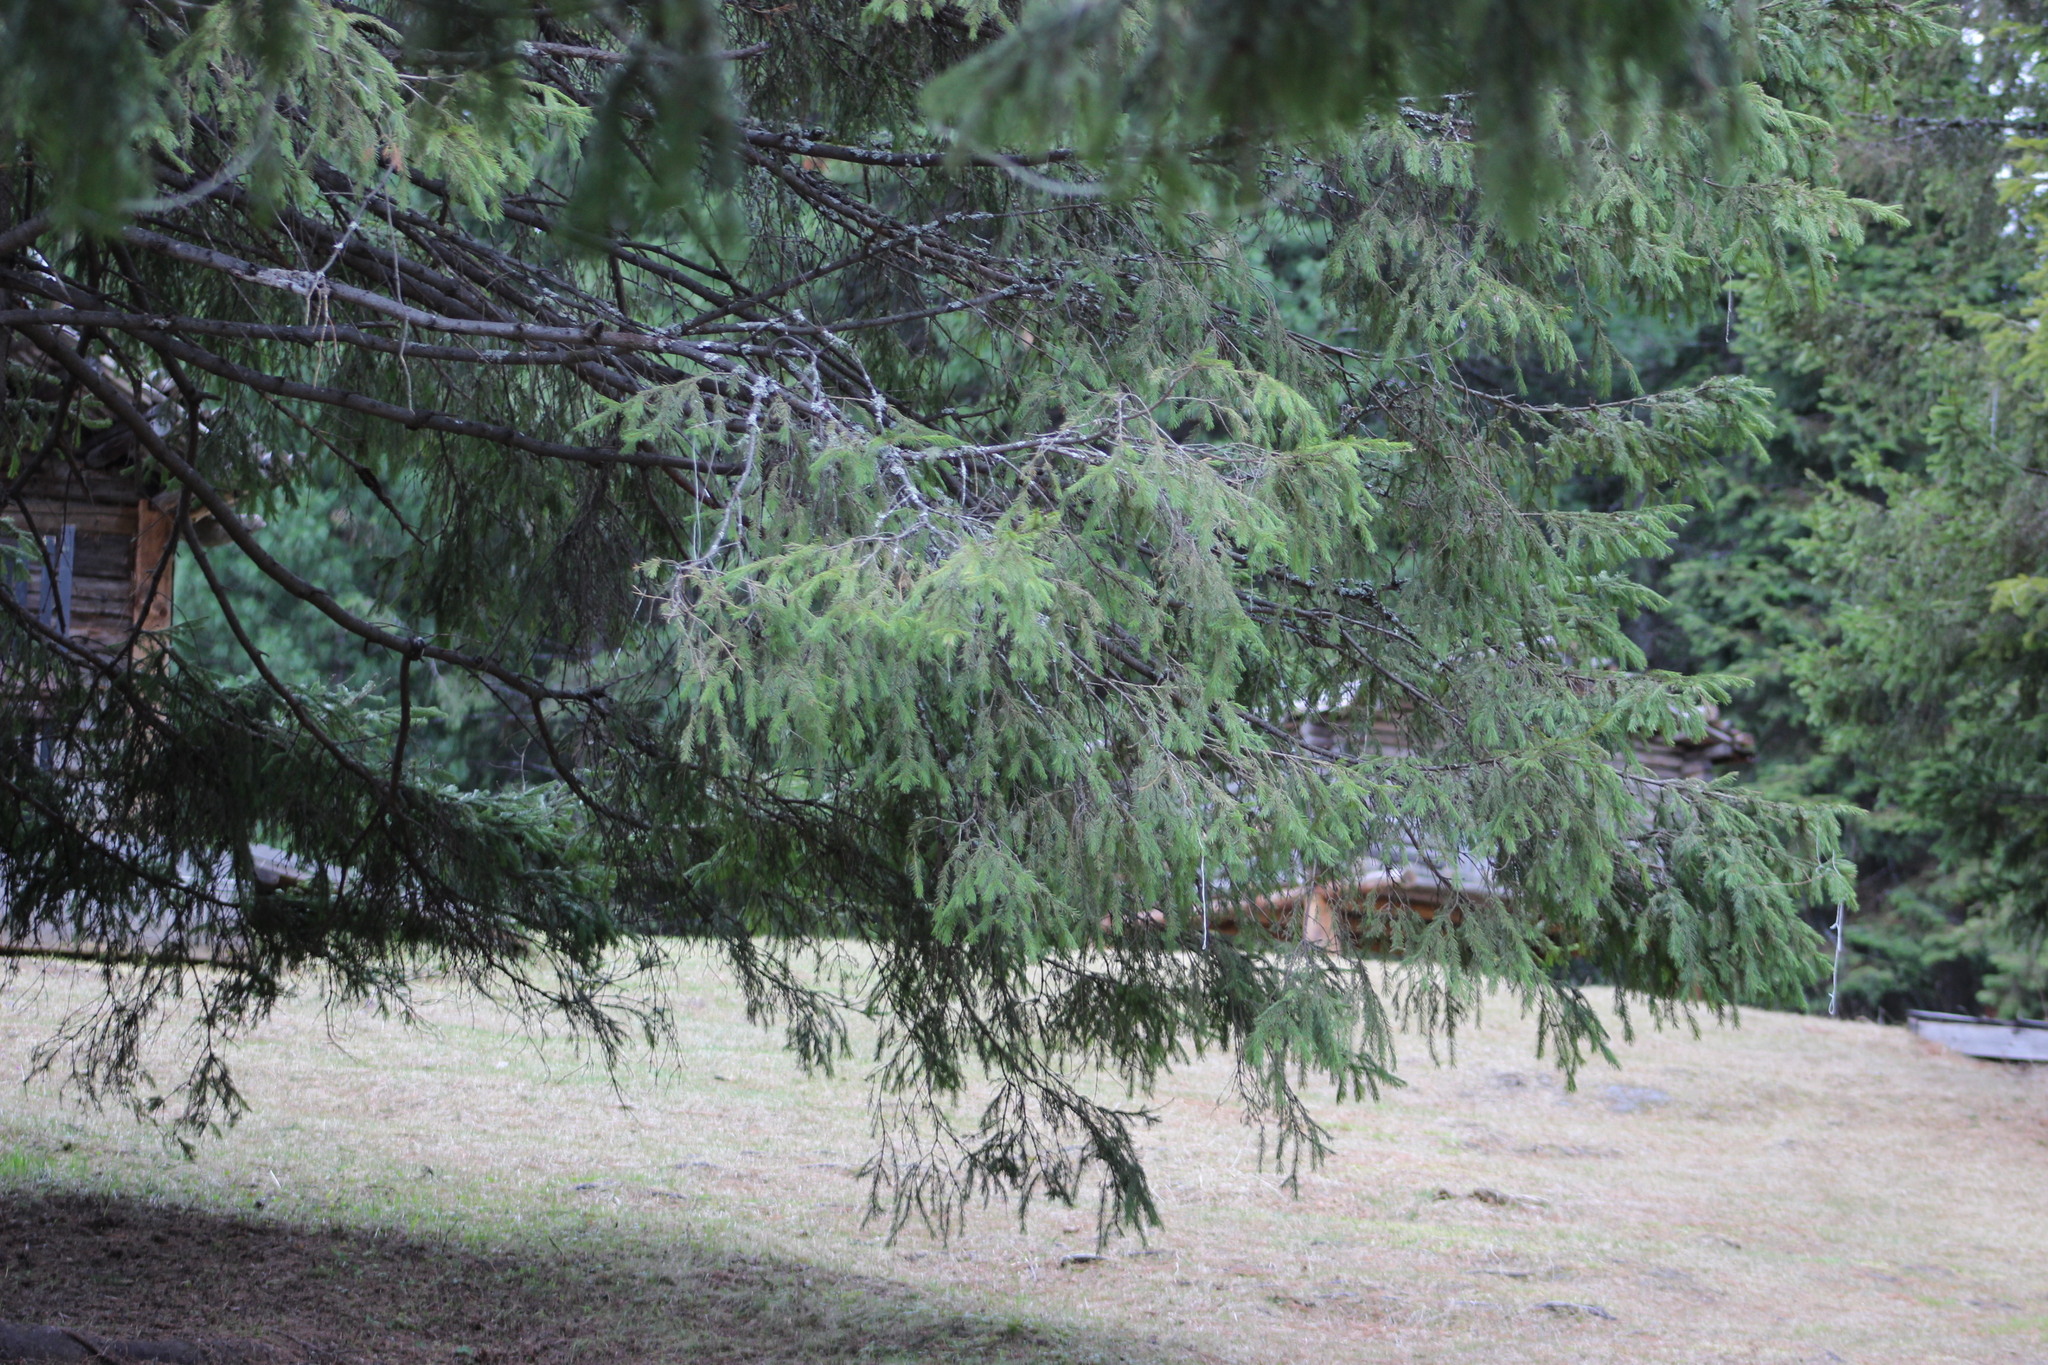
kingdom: Plantae
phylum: Tracheophyta
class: Pinopsida
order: Pinales
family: Pinaceae
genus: Picea
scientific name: Picea obovata
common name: Siberian spruce
